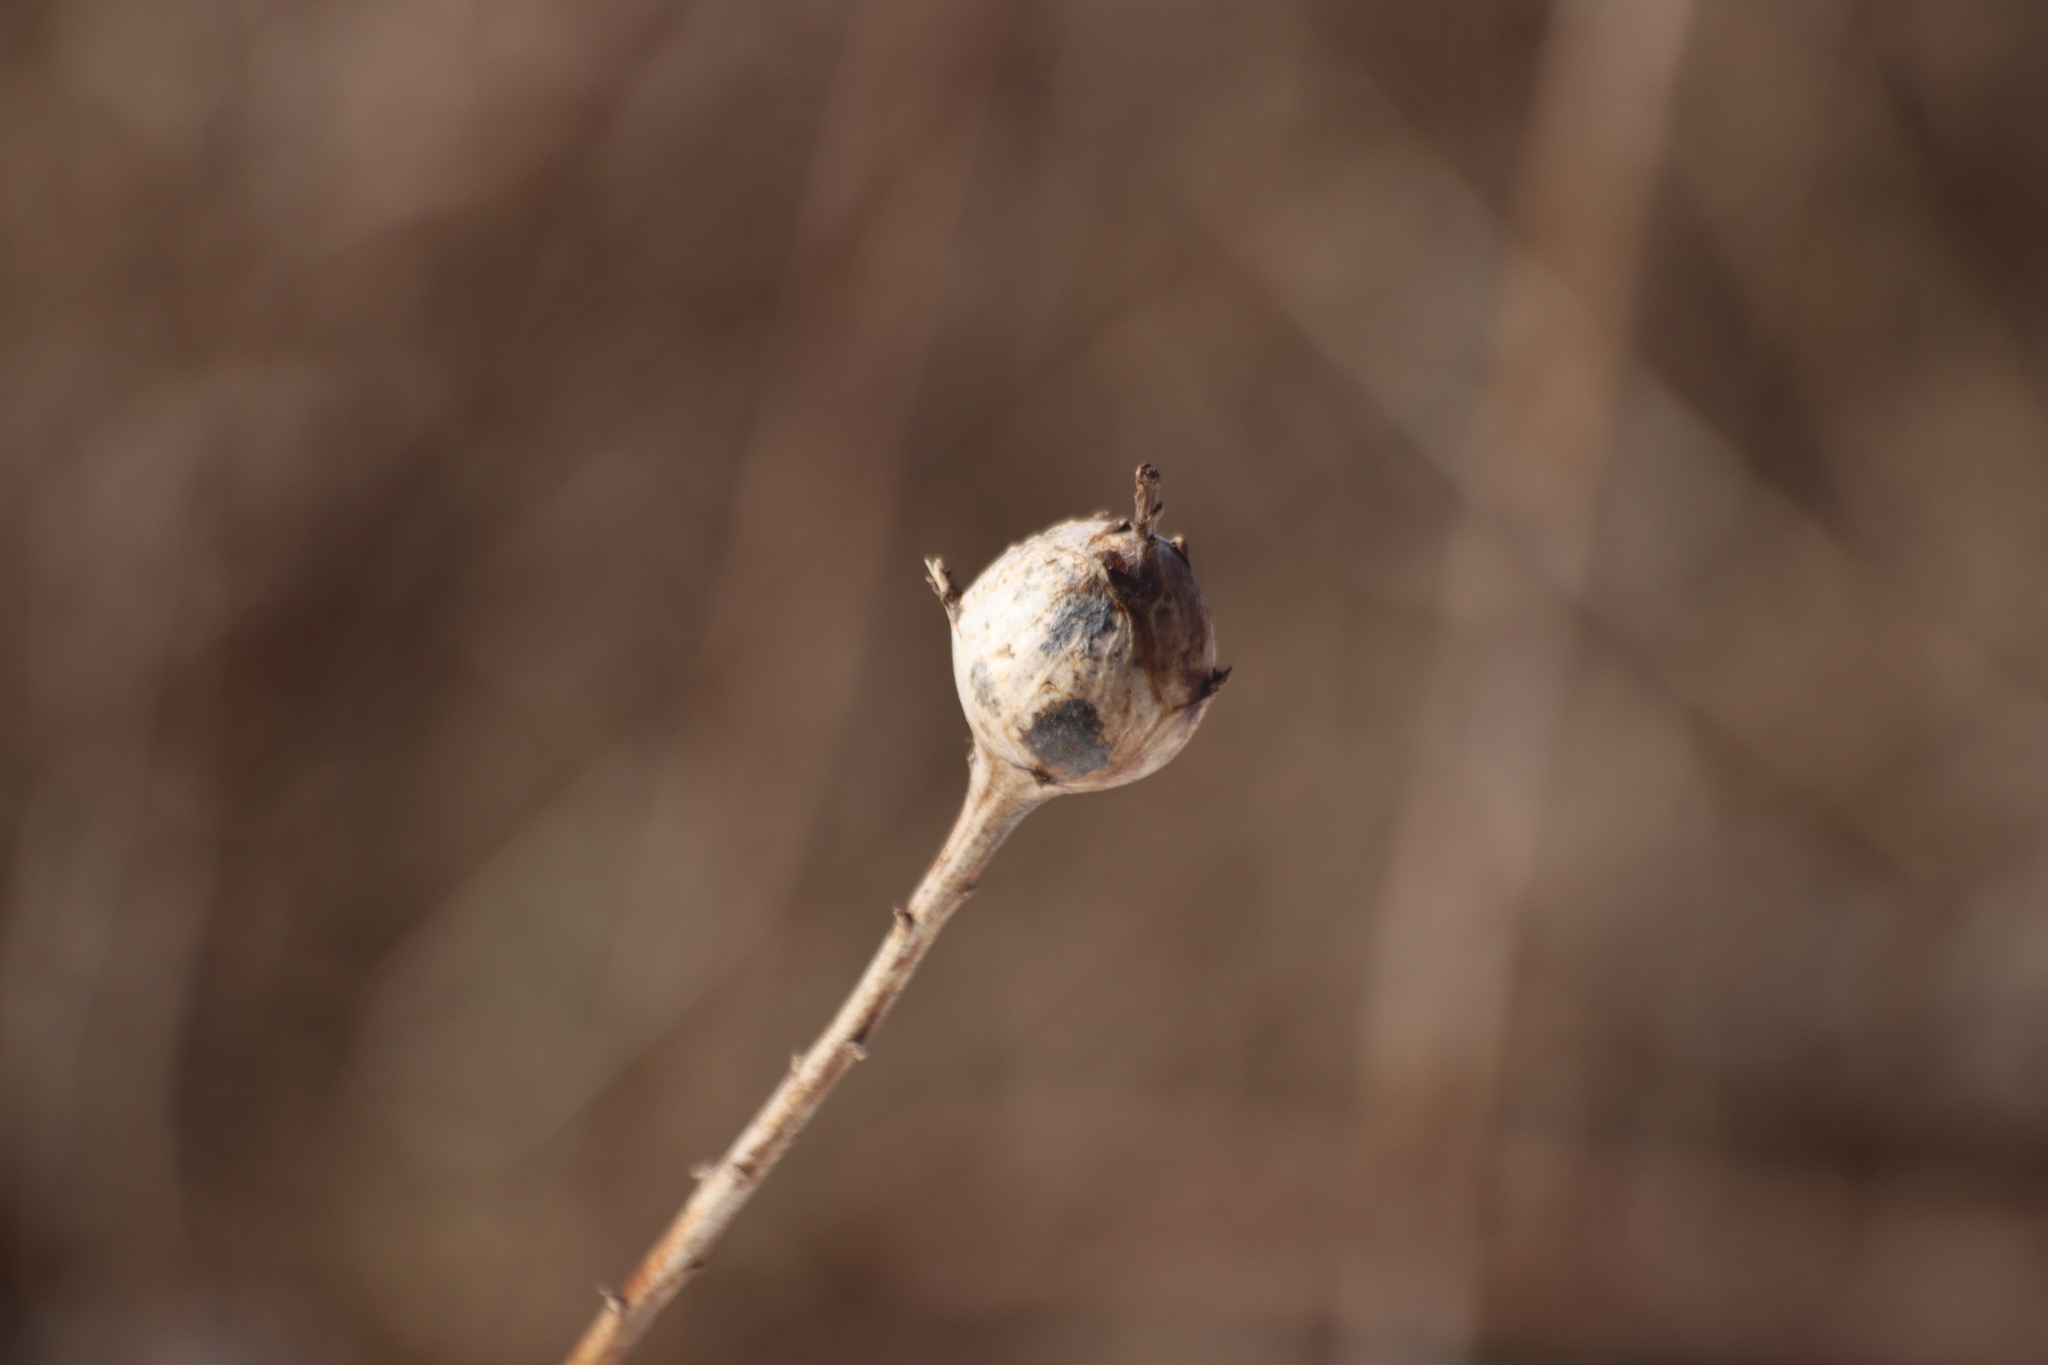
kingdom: Animalia
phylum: Arthropoda
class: Insecta
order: Diptera
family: Tephritidae
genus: Eurosta
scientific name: Eurosta solidaginis
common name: Goldenrod gall fly
